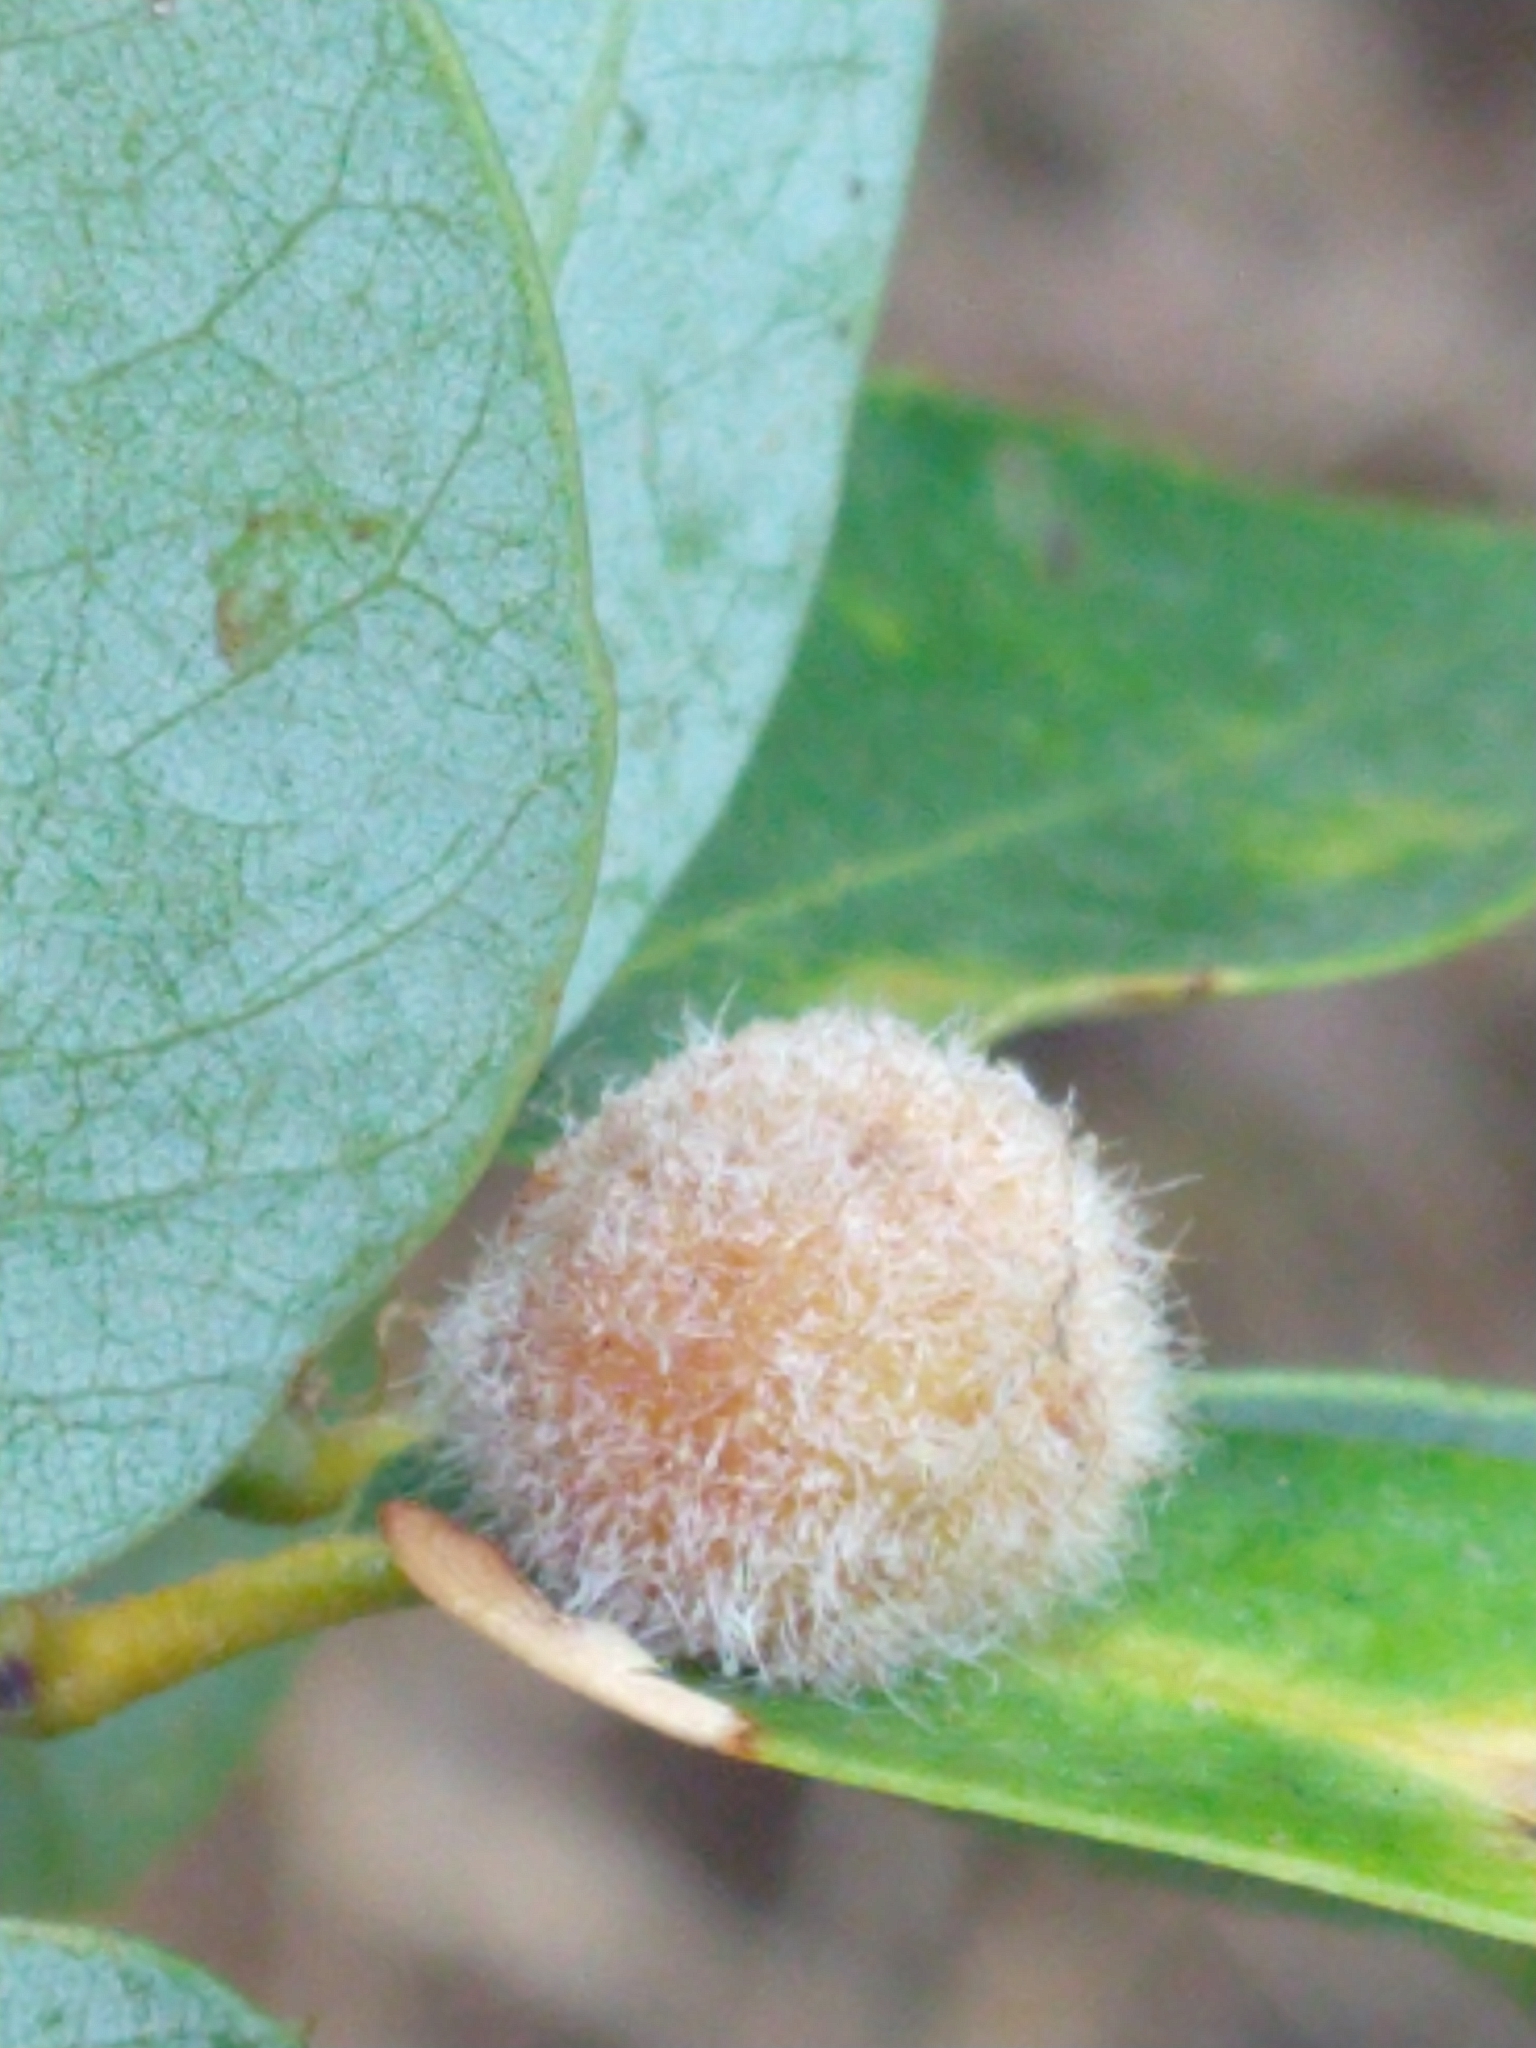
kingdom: Animalia
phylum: Arthropoda
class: Insecta
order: Hymenoptera
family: Cynipidae
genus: Disholandricus
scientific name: Disholandricus
